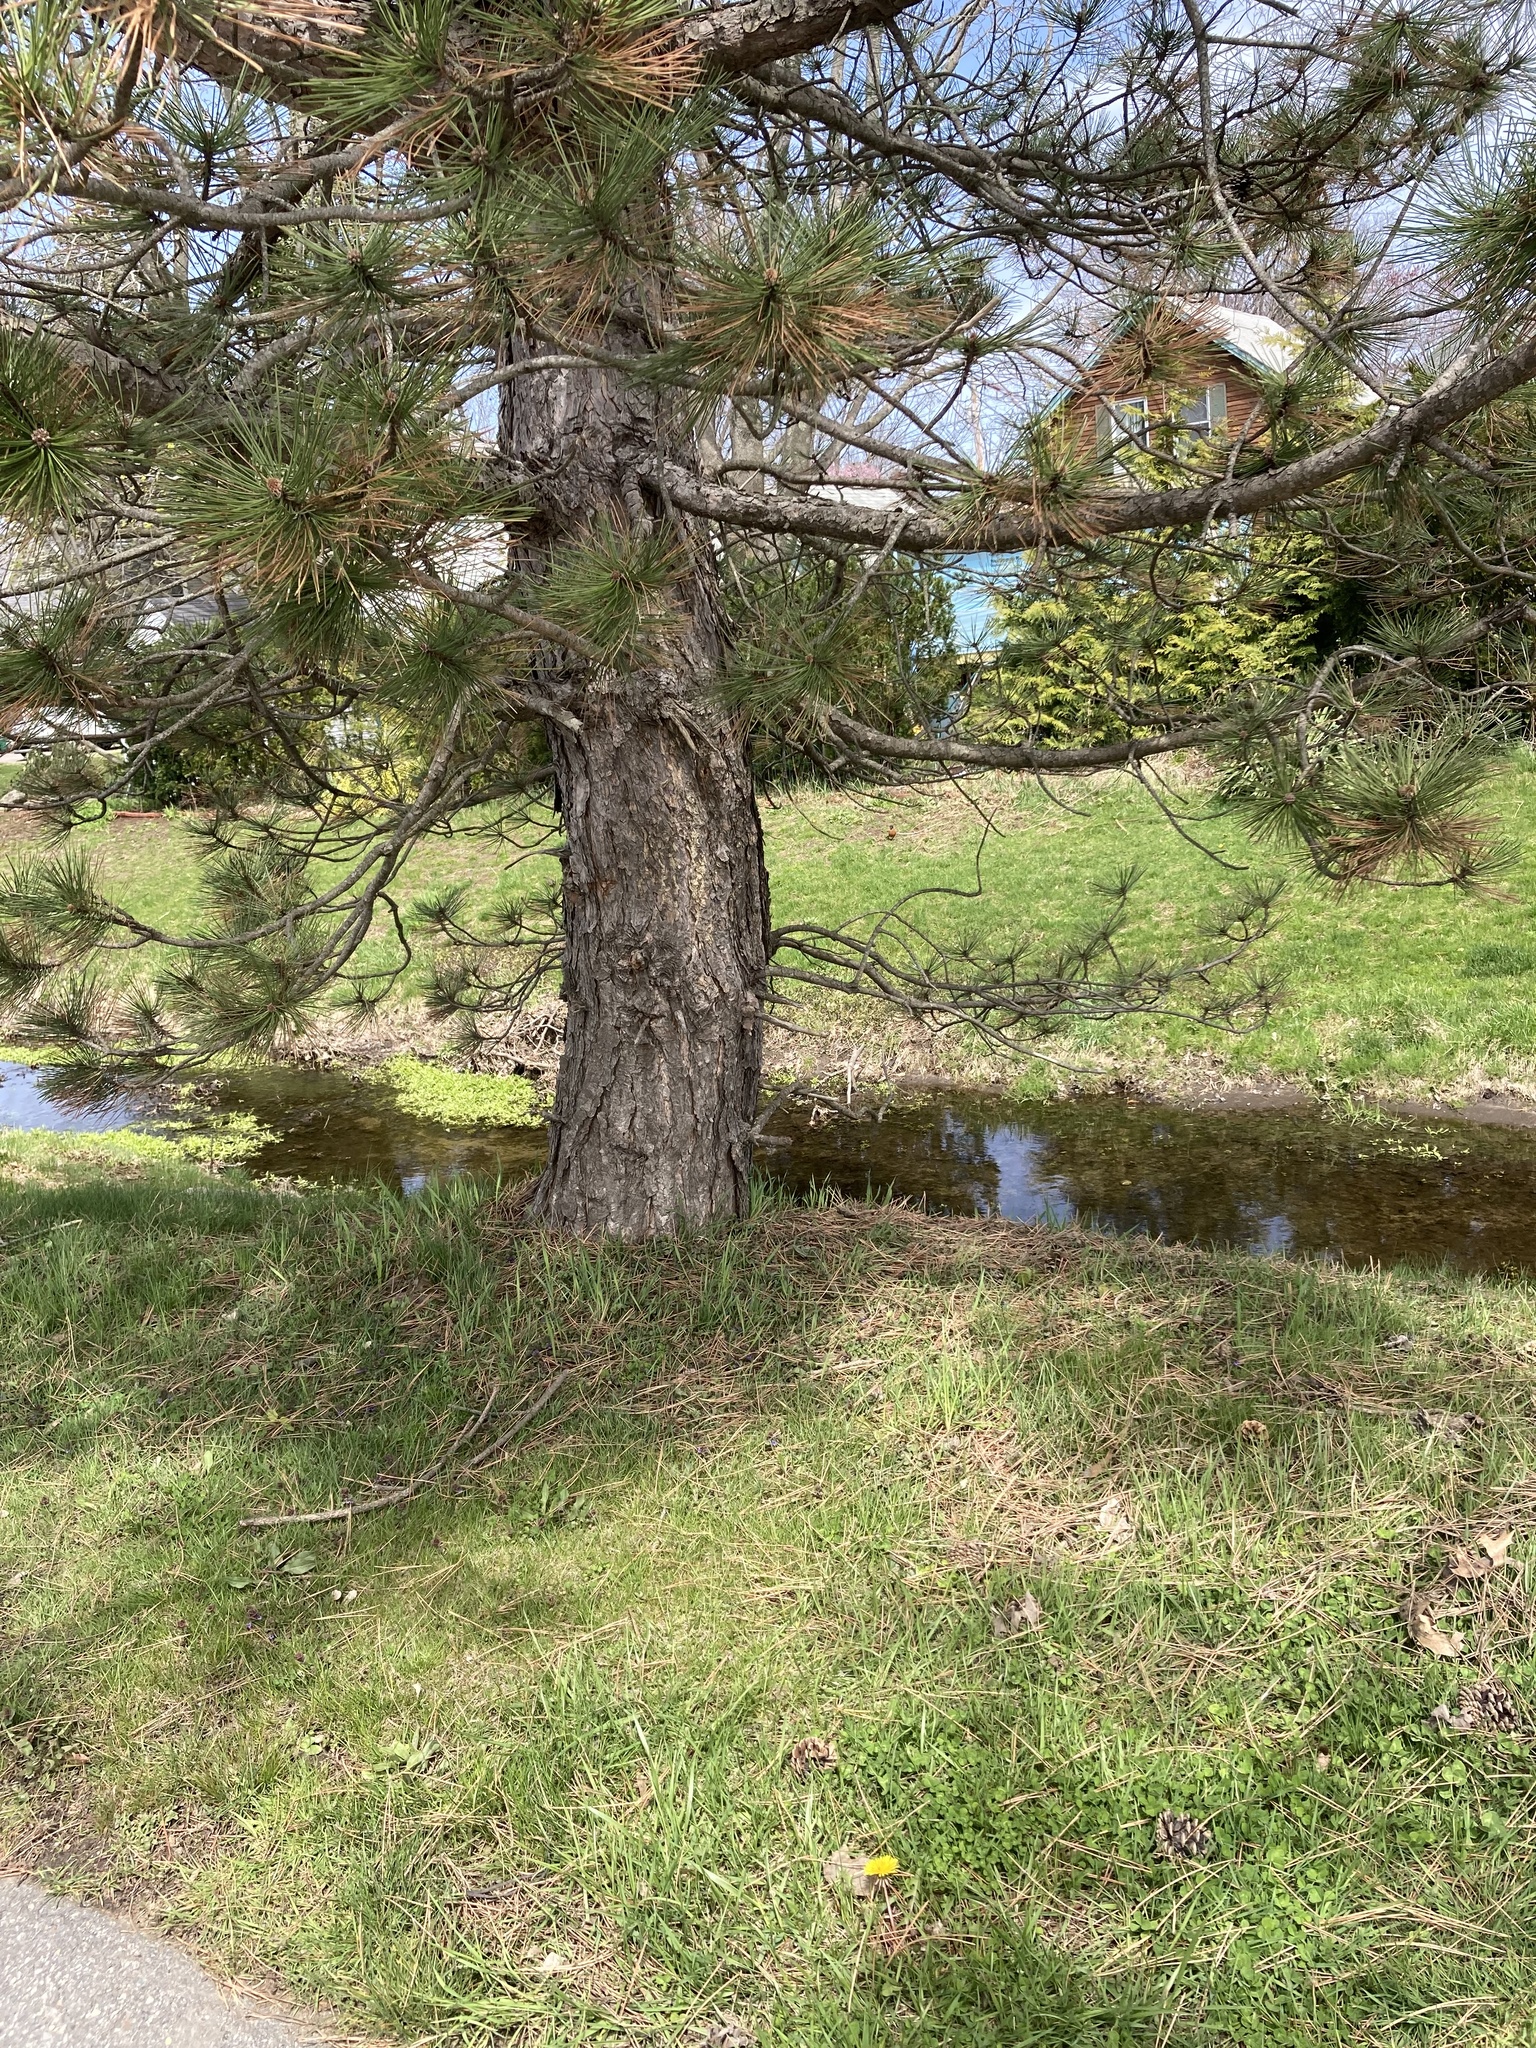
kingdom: Plantae
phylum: Tracheophyta
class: Pinopsida
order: Pinales
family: Pinaceae
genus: Pinus
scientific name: Pinus resinosa
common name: Norway pine
